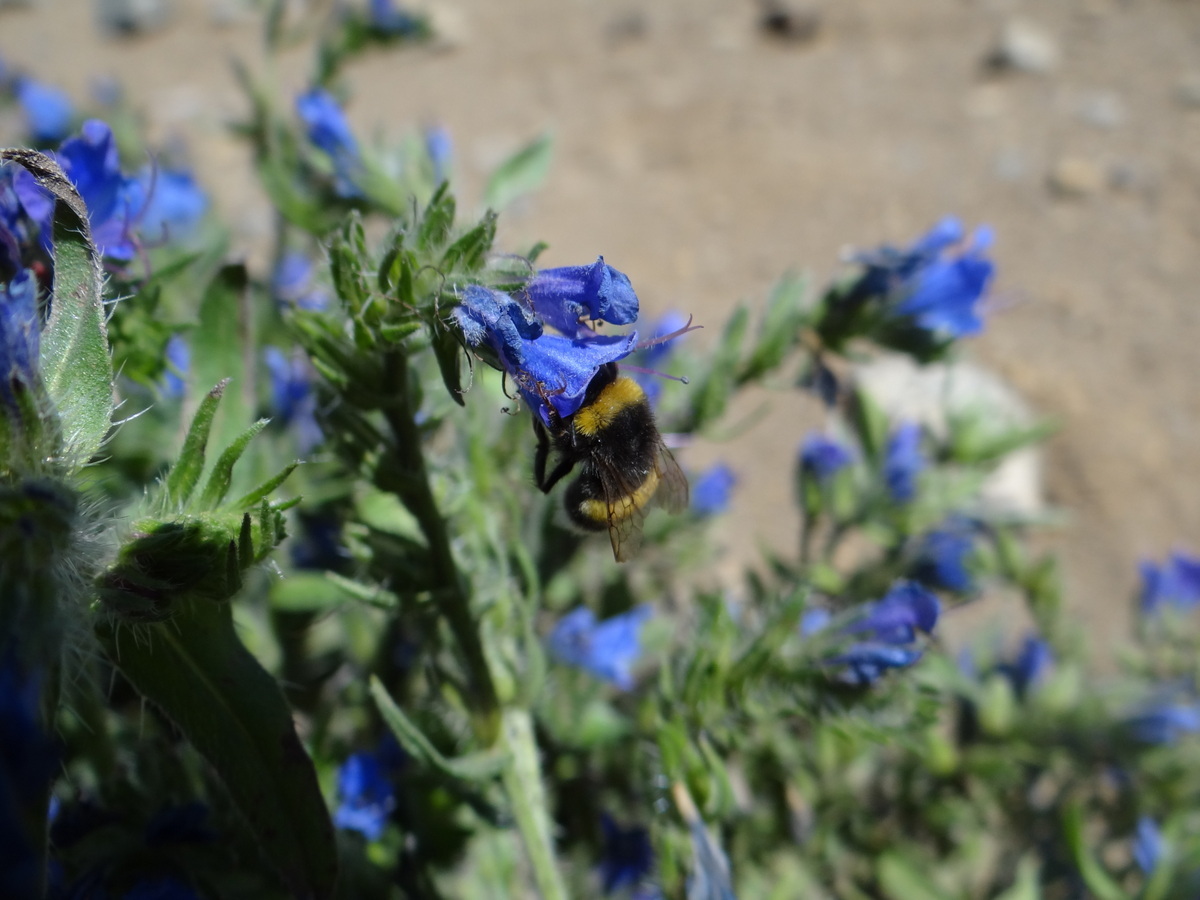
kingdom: Animalia
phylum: Arthropoda
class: Insecta
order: Hymenoptera
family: Apidae
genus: Bombus
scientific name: Bombus terrestris
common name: Buff-tailed bumblebee
